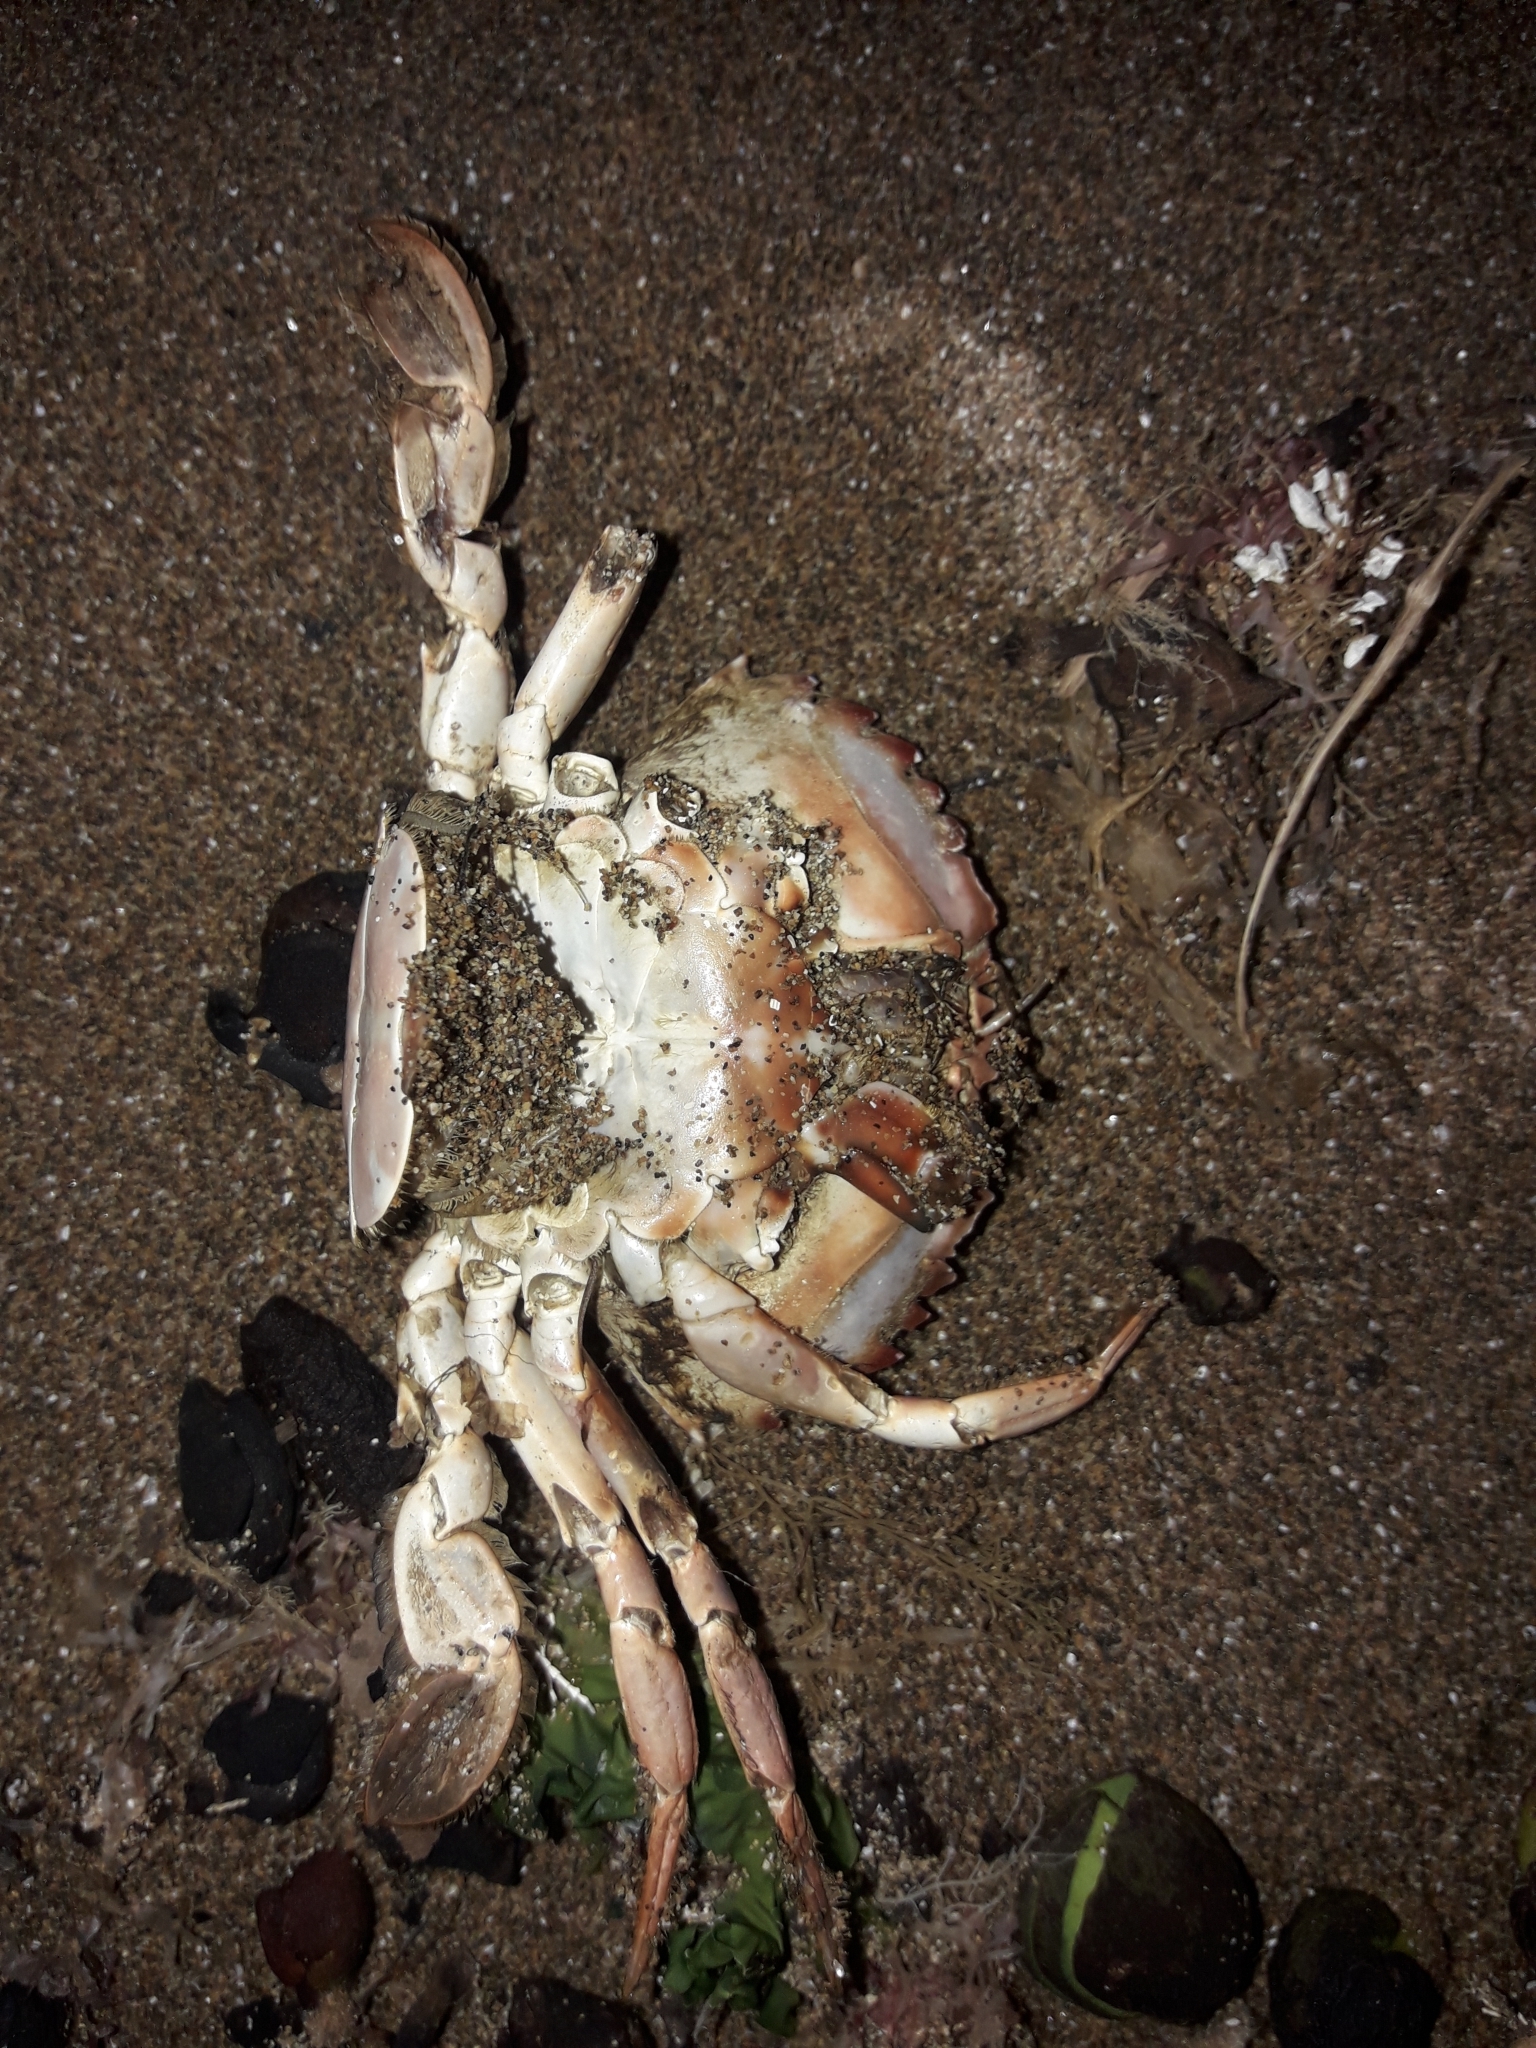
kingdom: Animalia
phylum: Arthropoda
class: Malacostraca
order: Decapoda
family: Portunidae
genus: Charybdis
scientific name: Charybdis japonica
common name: Asian paddle crab
